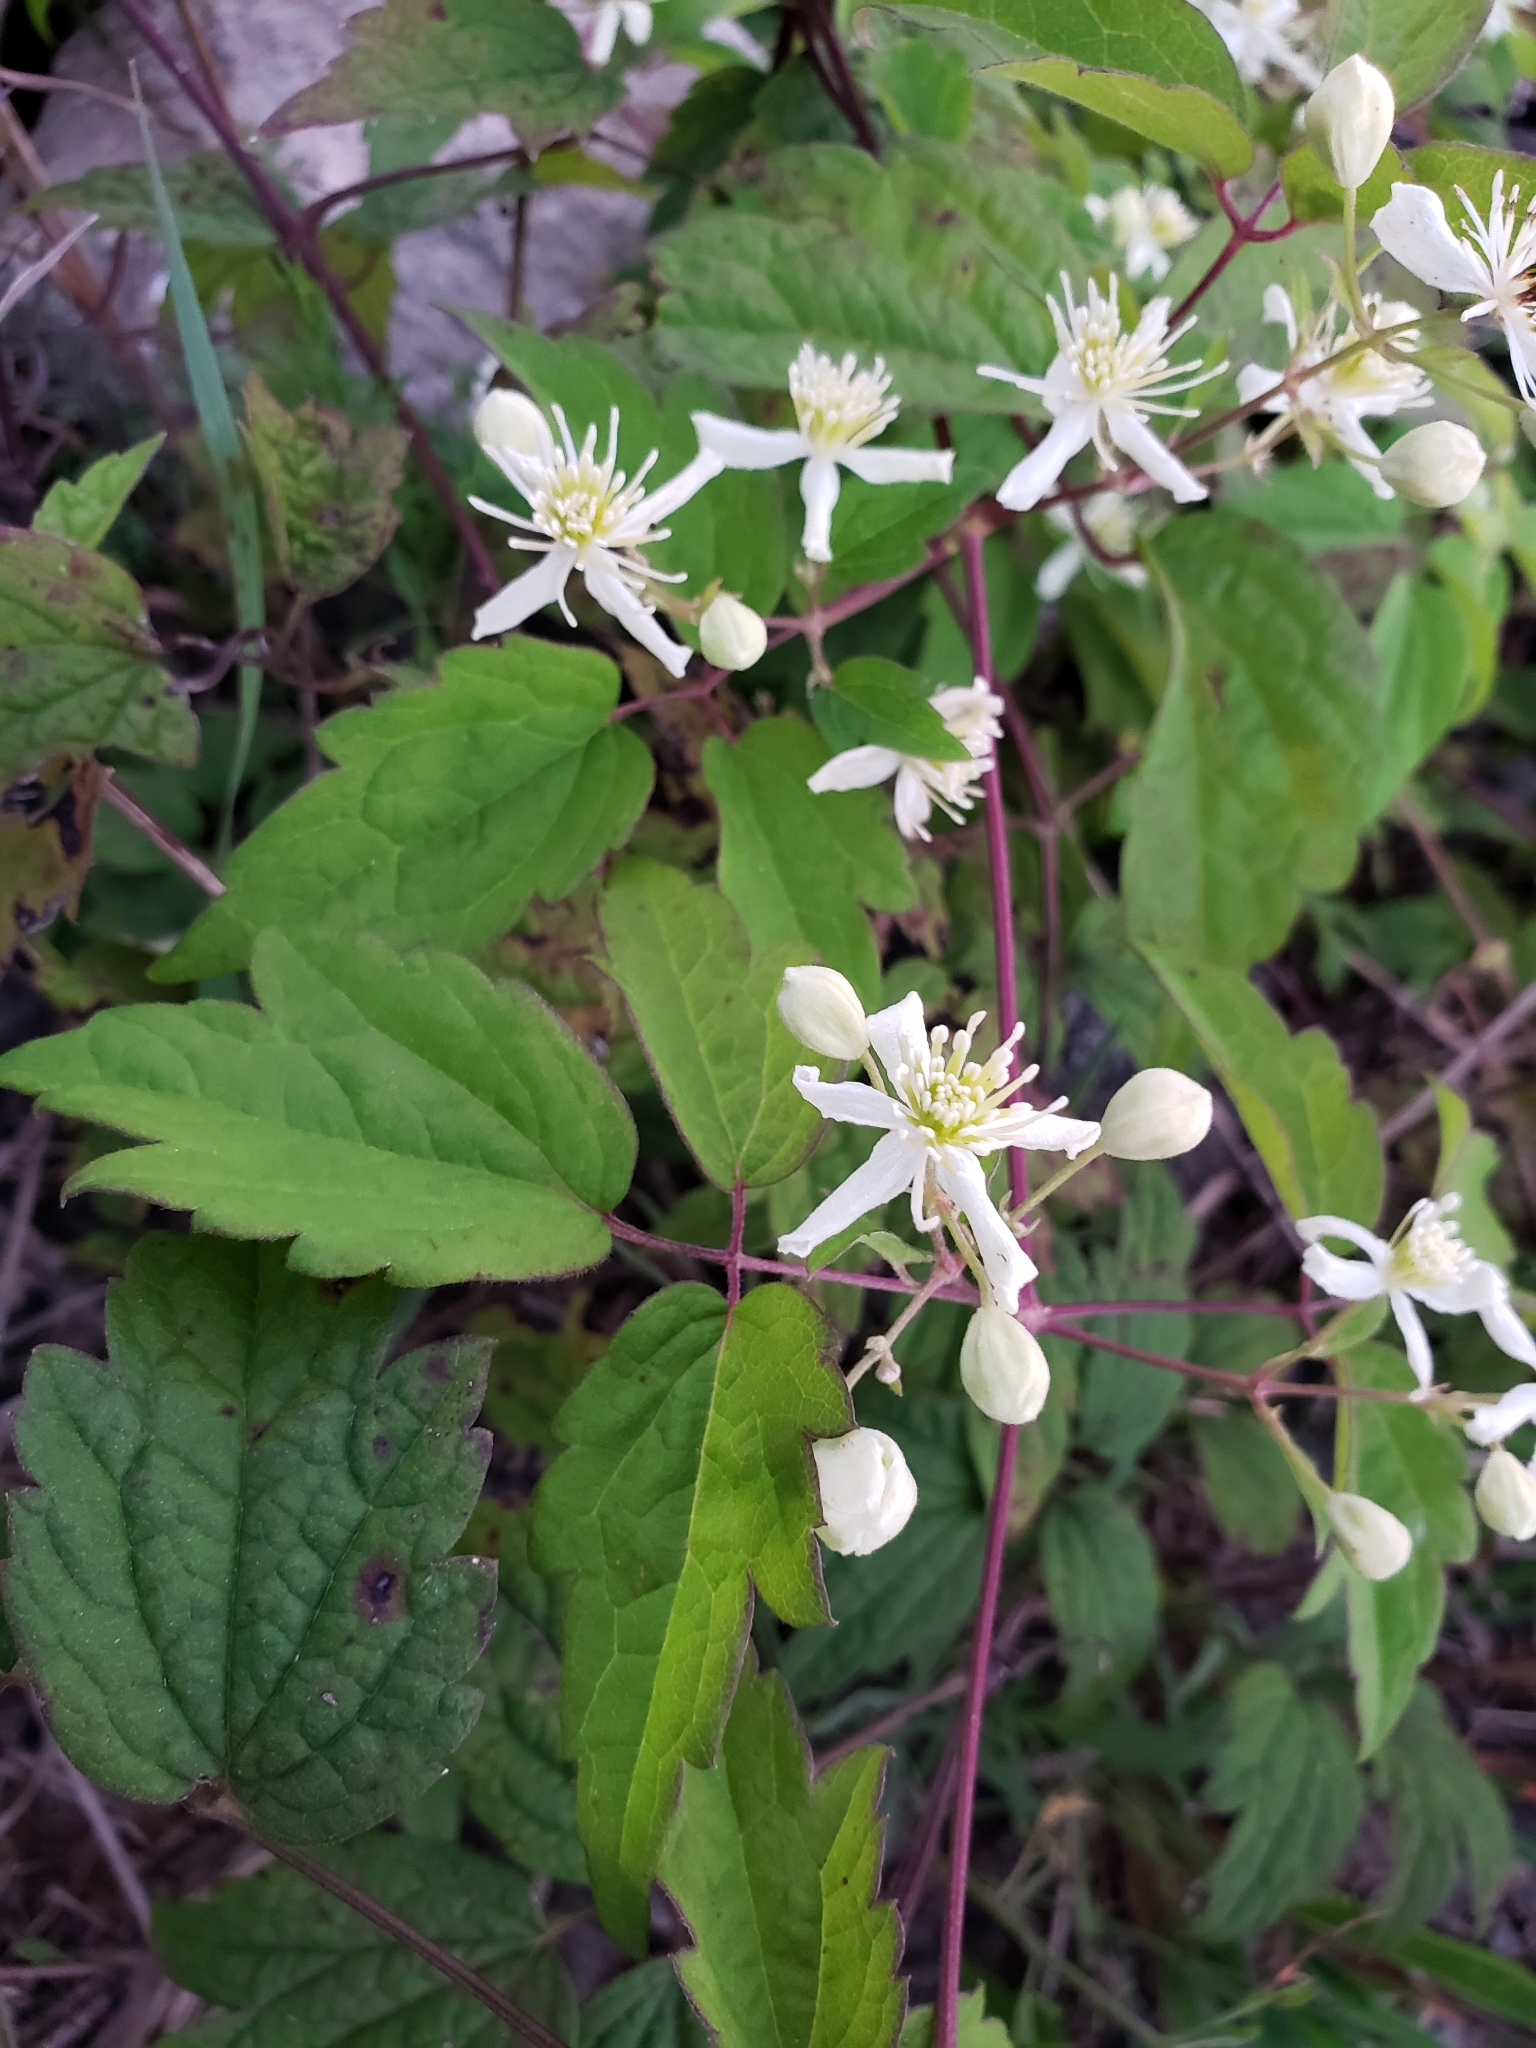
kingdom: Plantae
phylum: Tracheophyta
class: Magnoliopsida
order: Ranunculales
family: Ranunculaceae
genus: Clematis
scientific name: Clematis virginiana
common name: Virgin's-bower
